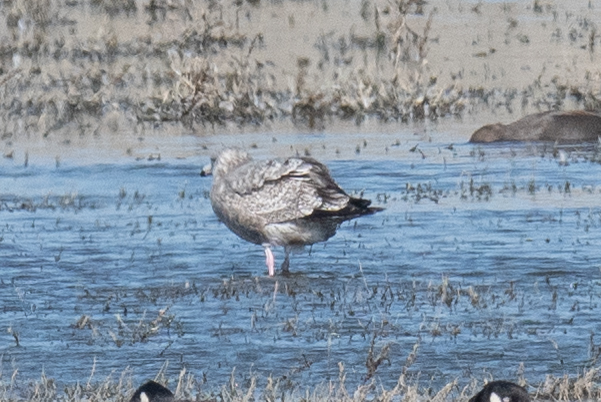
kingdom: Animalia
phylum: Chordata
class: Aves
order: Charadriiformes
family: Laridae
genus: Larus
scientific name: Larus argentatus
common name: Herring gull
